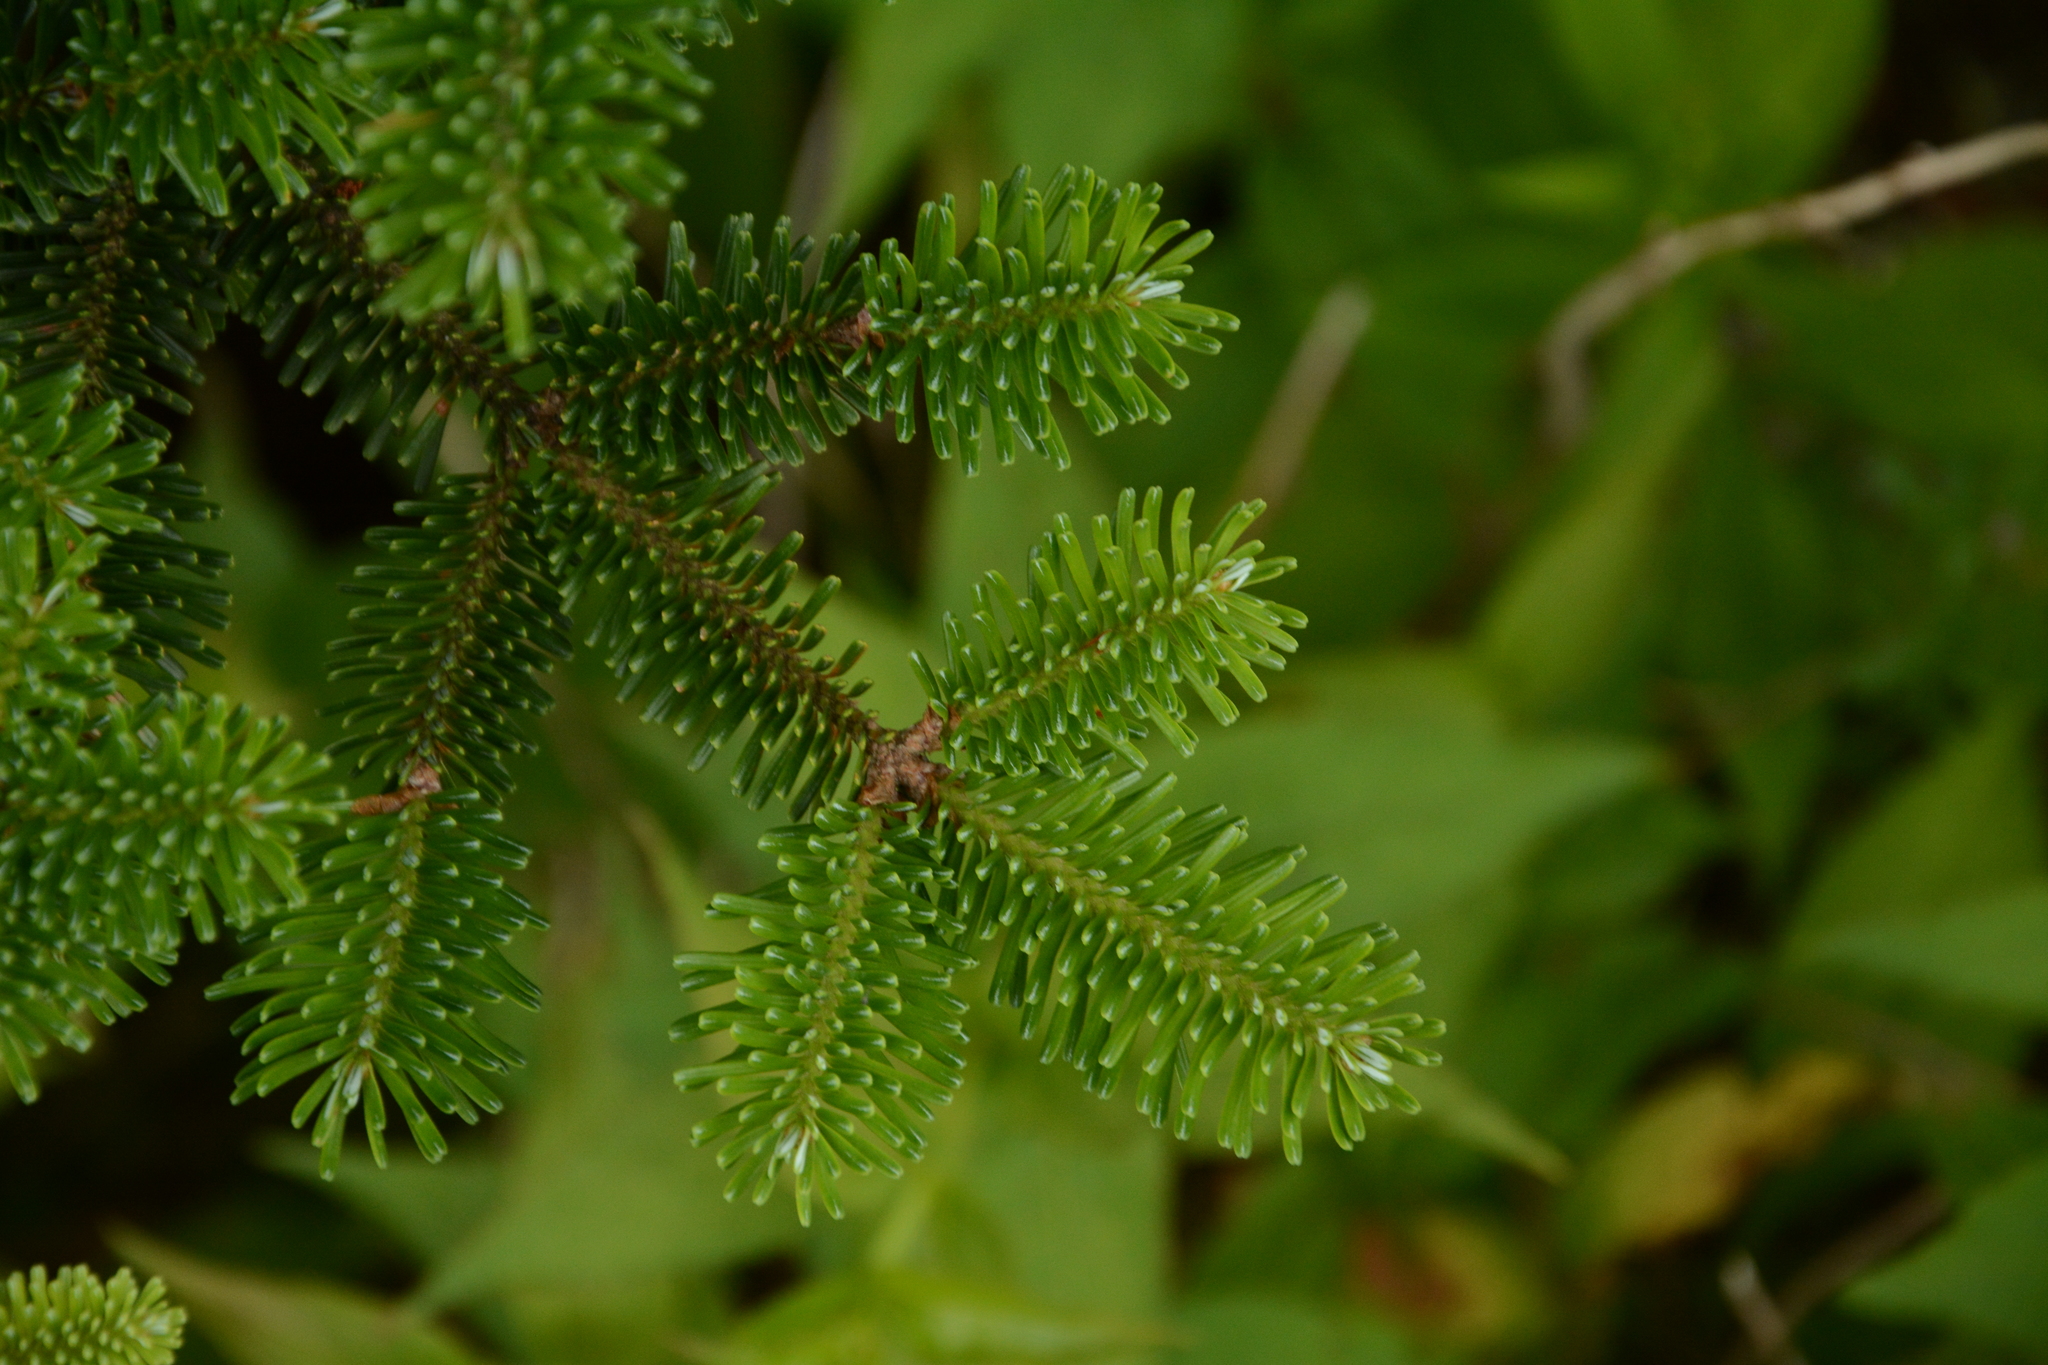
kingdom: Plantae
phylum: Tracheophyta
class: Pinopsida
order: Pinales
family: Pinaceae
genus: Abies
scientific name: Abies fraseri
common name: Fraser fir
